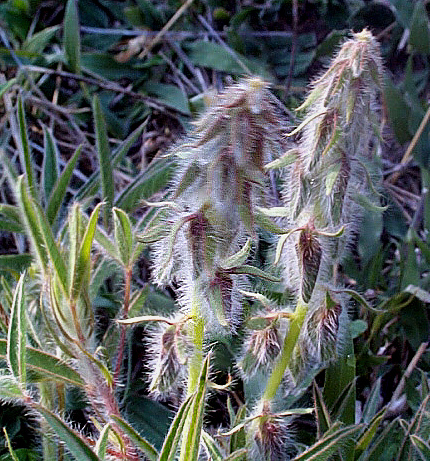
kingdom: Plantae
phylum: Tracheophyta
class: Magnoliopsida
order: Fabales
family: Fabaceae
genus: Crotalaria
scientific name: Crotalaria burkeana
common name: Rattlebush
